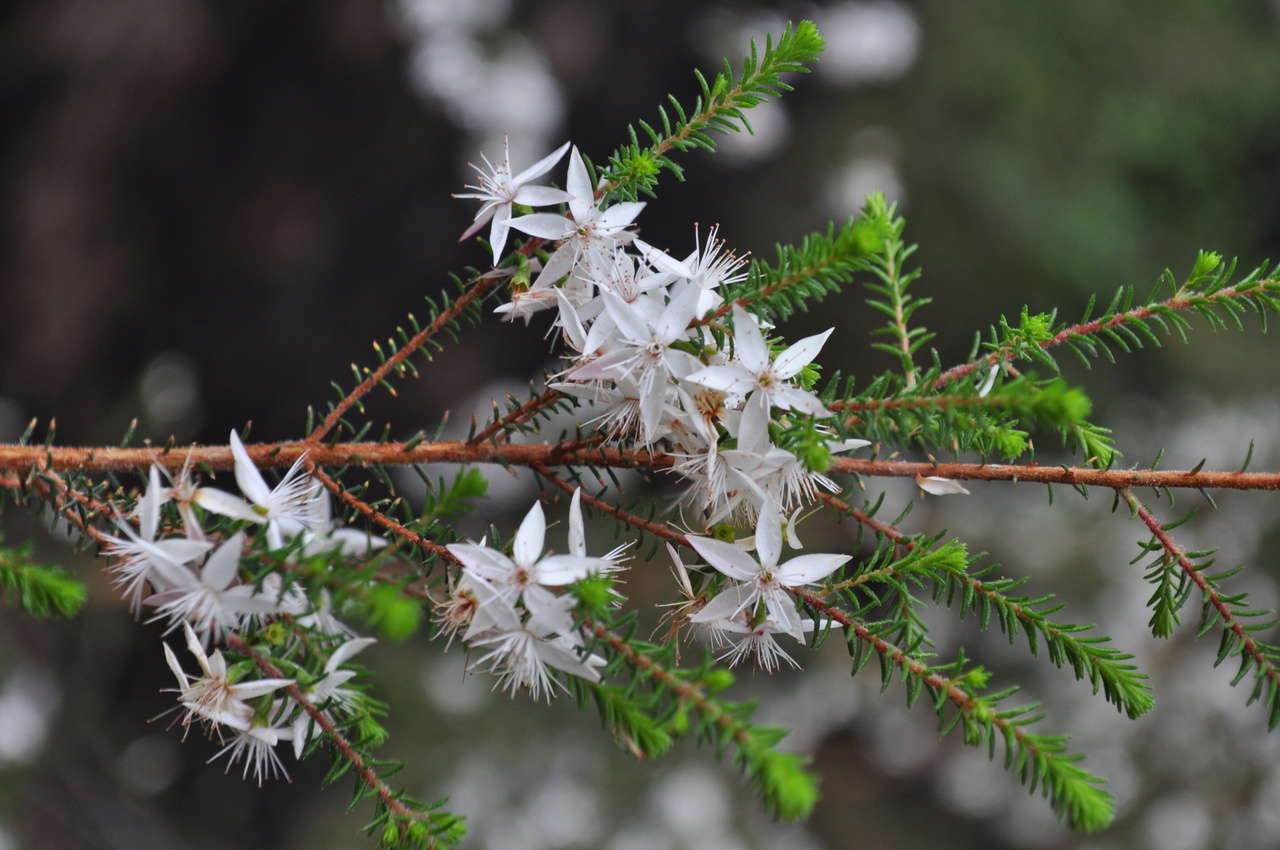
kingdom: Plantae
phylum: Tracheophyta
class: Magnoliopsida
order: Myrtales
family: Myrtaceae
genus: Calytrix
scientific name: Calytrix alpestris
